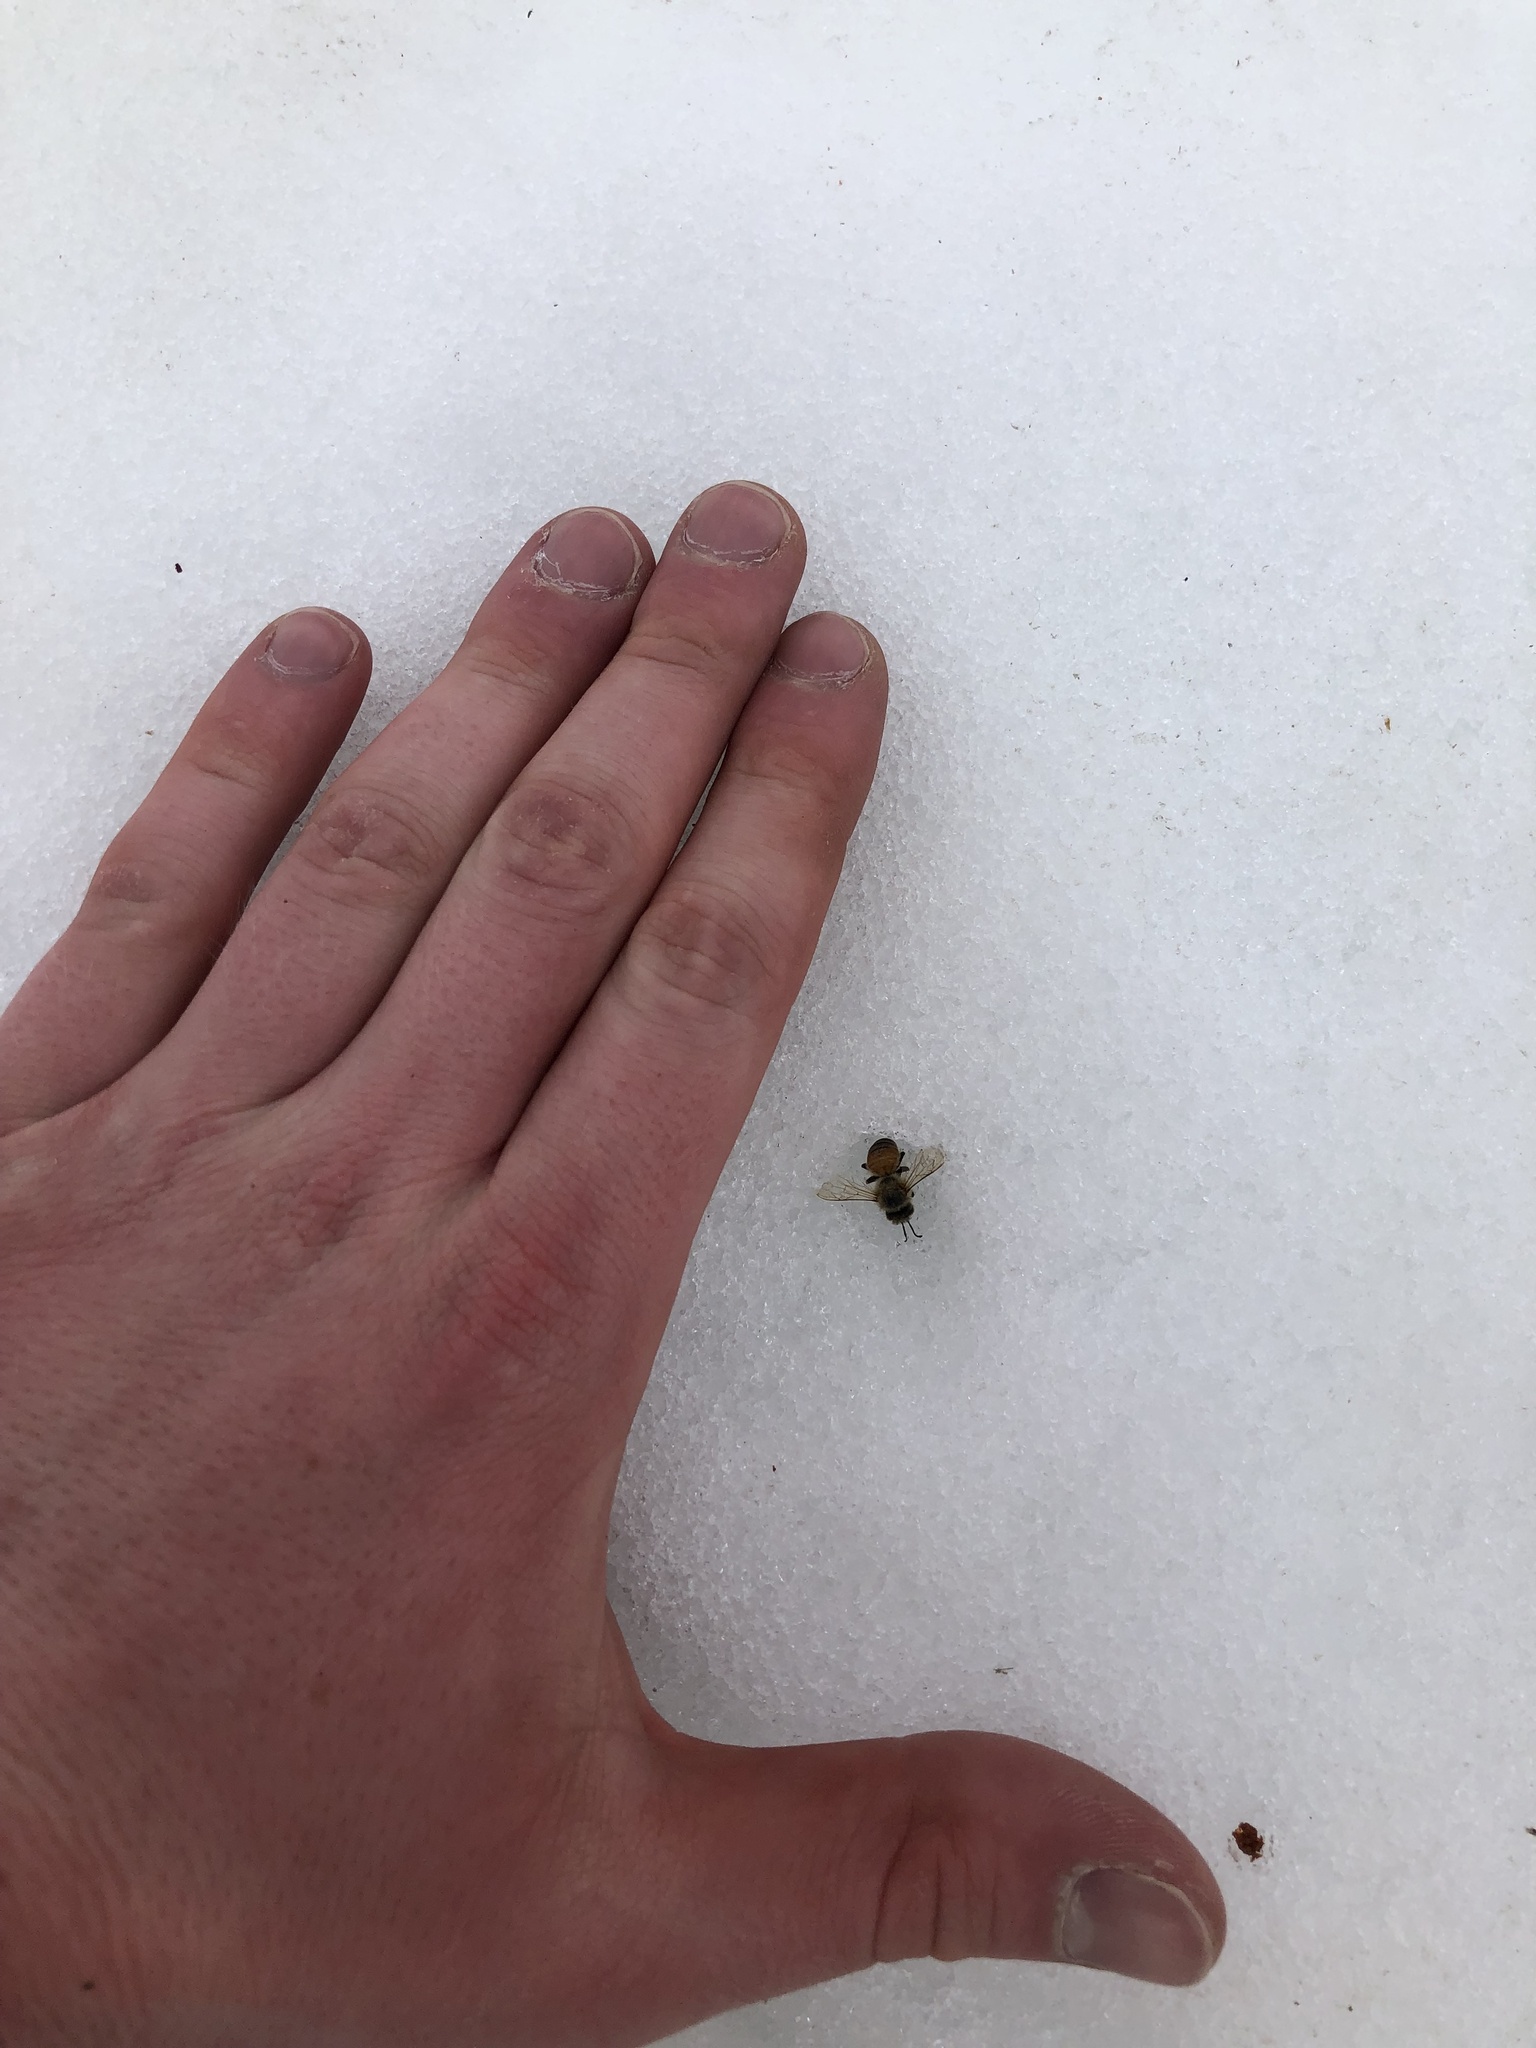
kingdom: Animalia
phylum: Arthropoda
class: Insecta
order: Hymenoptera
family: Apidae
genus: Apis
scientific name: Apis mellifera
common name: Honey bee
